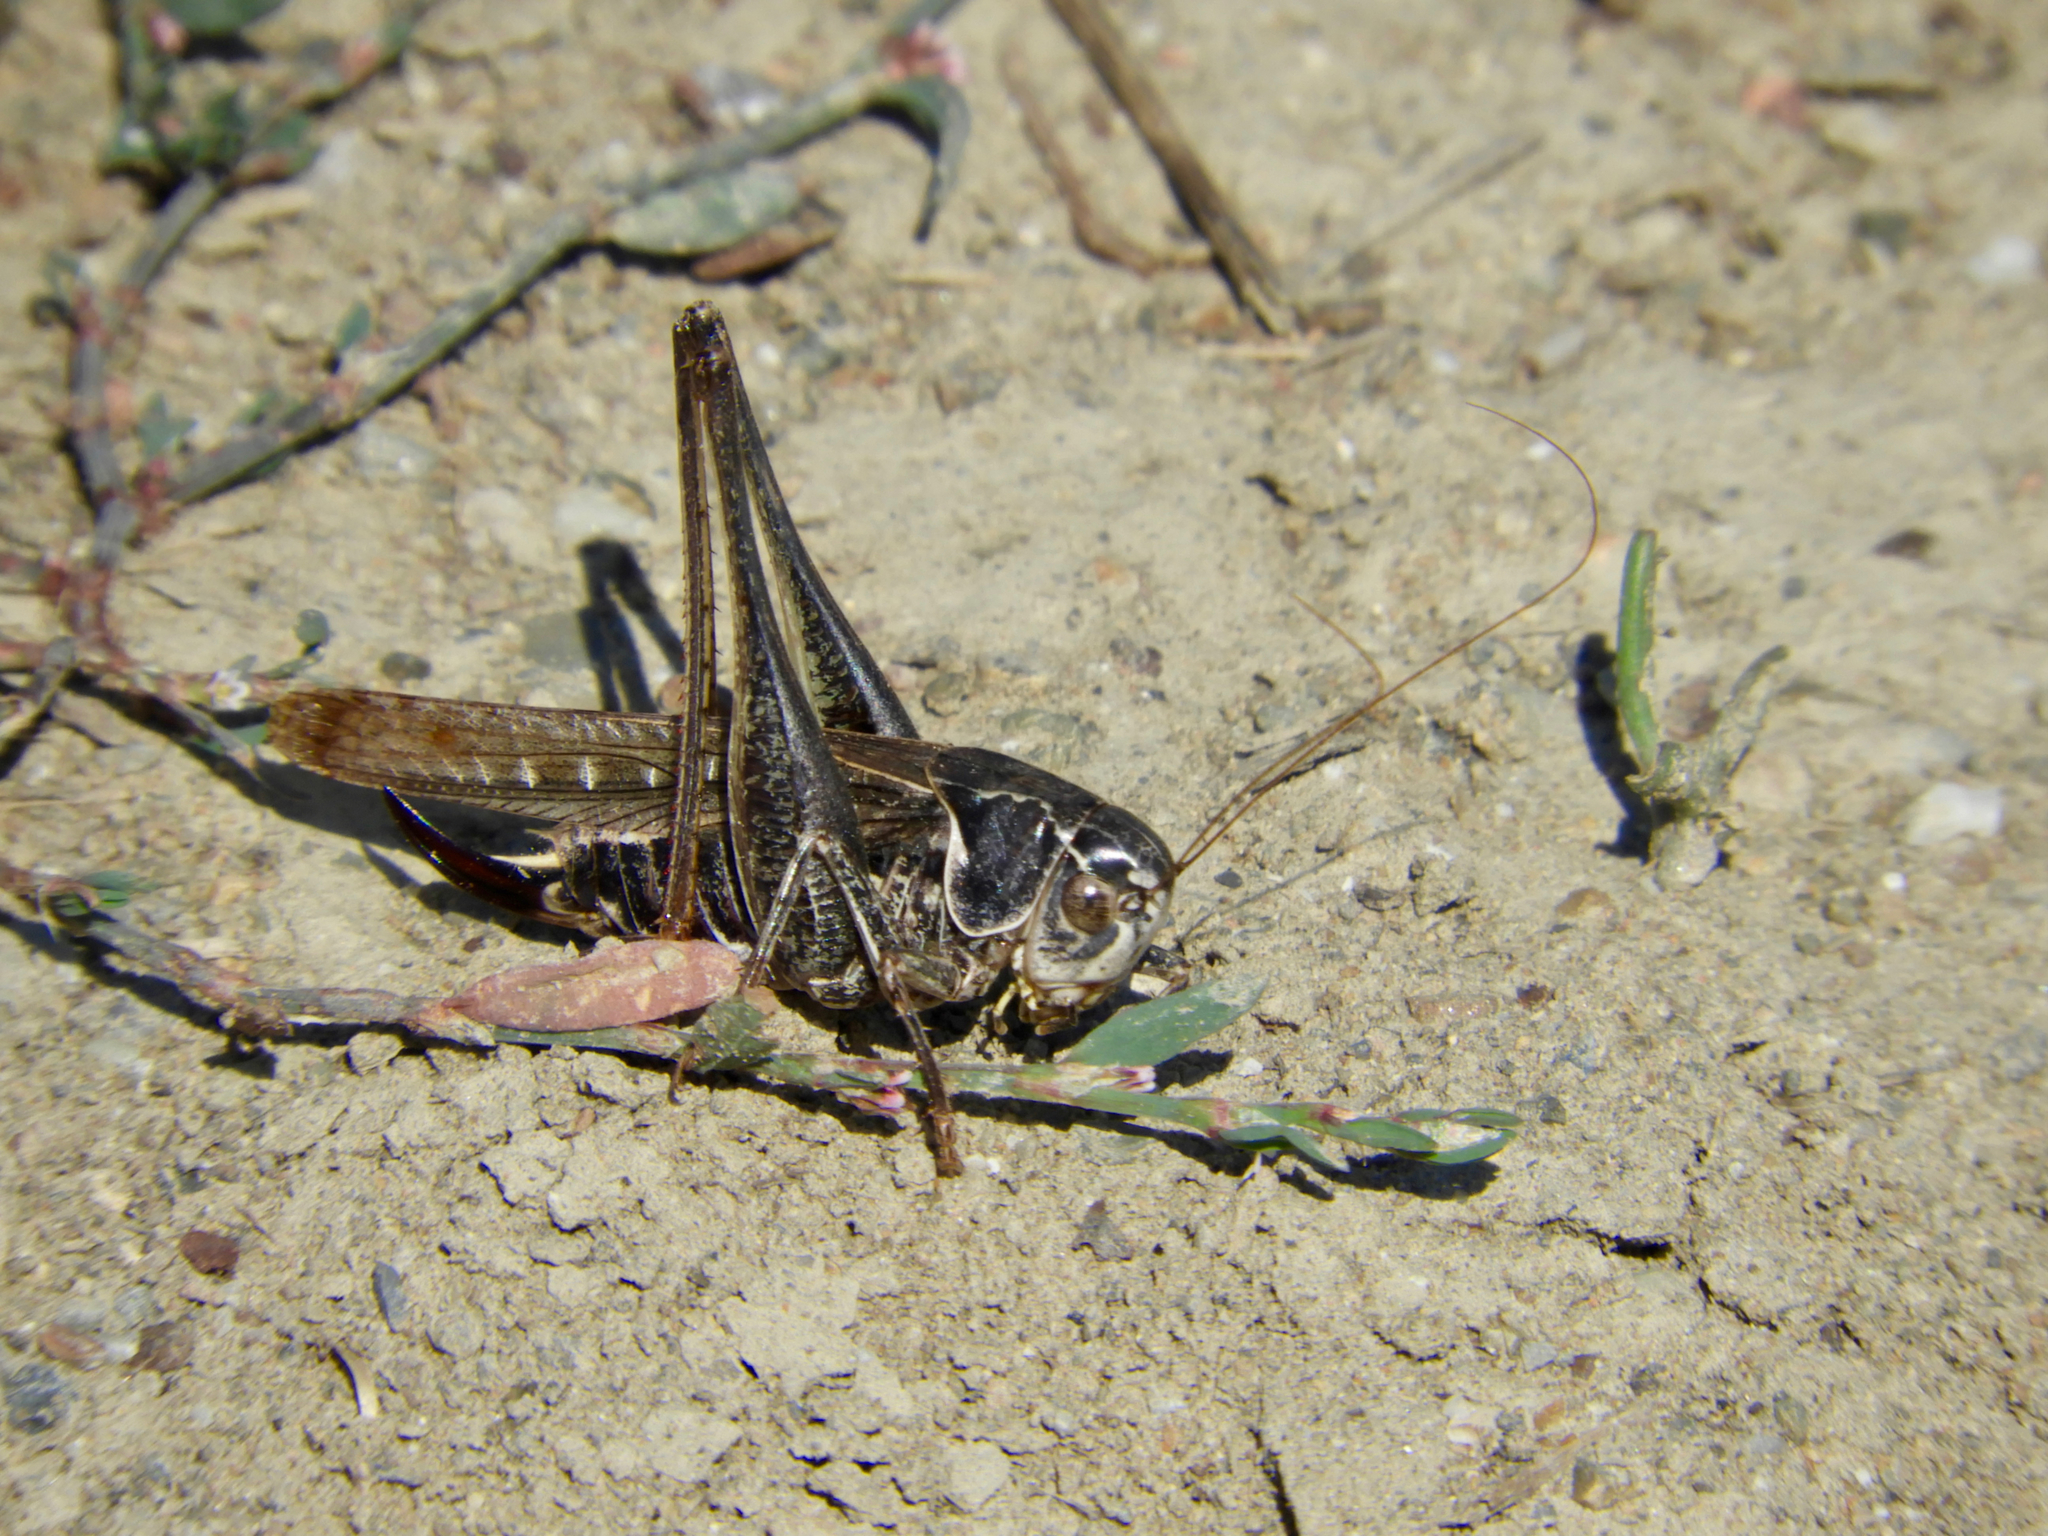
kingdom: Animalia
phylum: Arthropoda
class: Insecta
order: Orthoptera
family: Tettigoniidae
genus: Platycleis
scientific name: Platycleis
